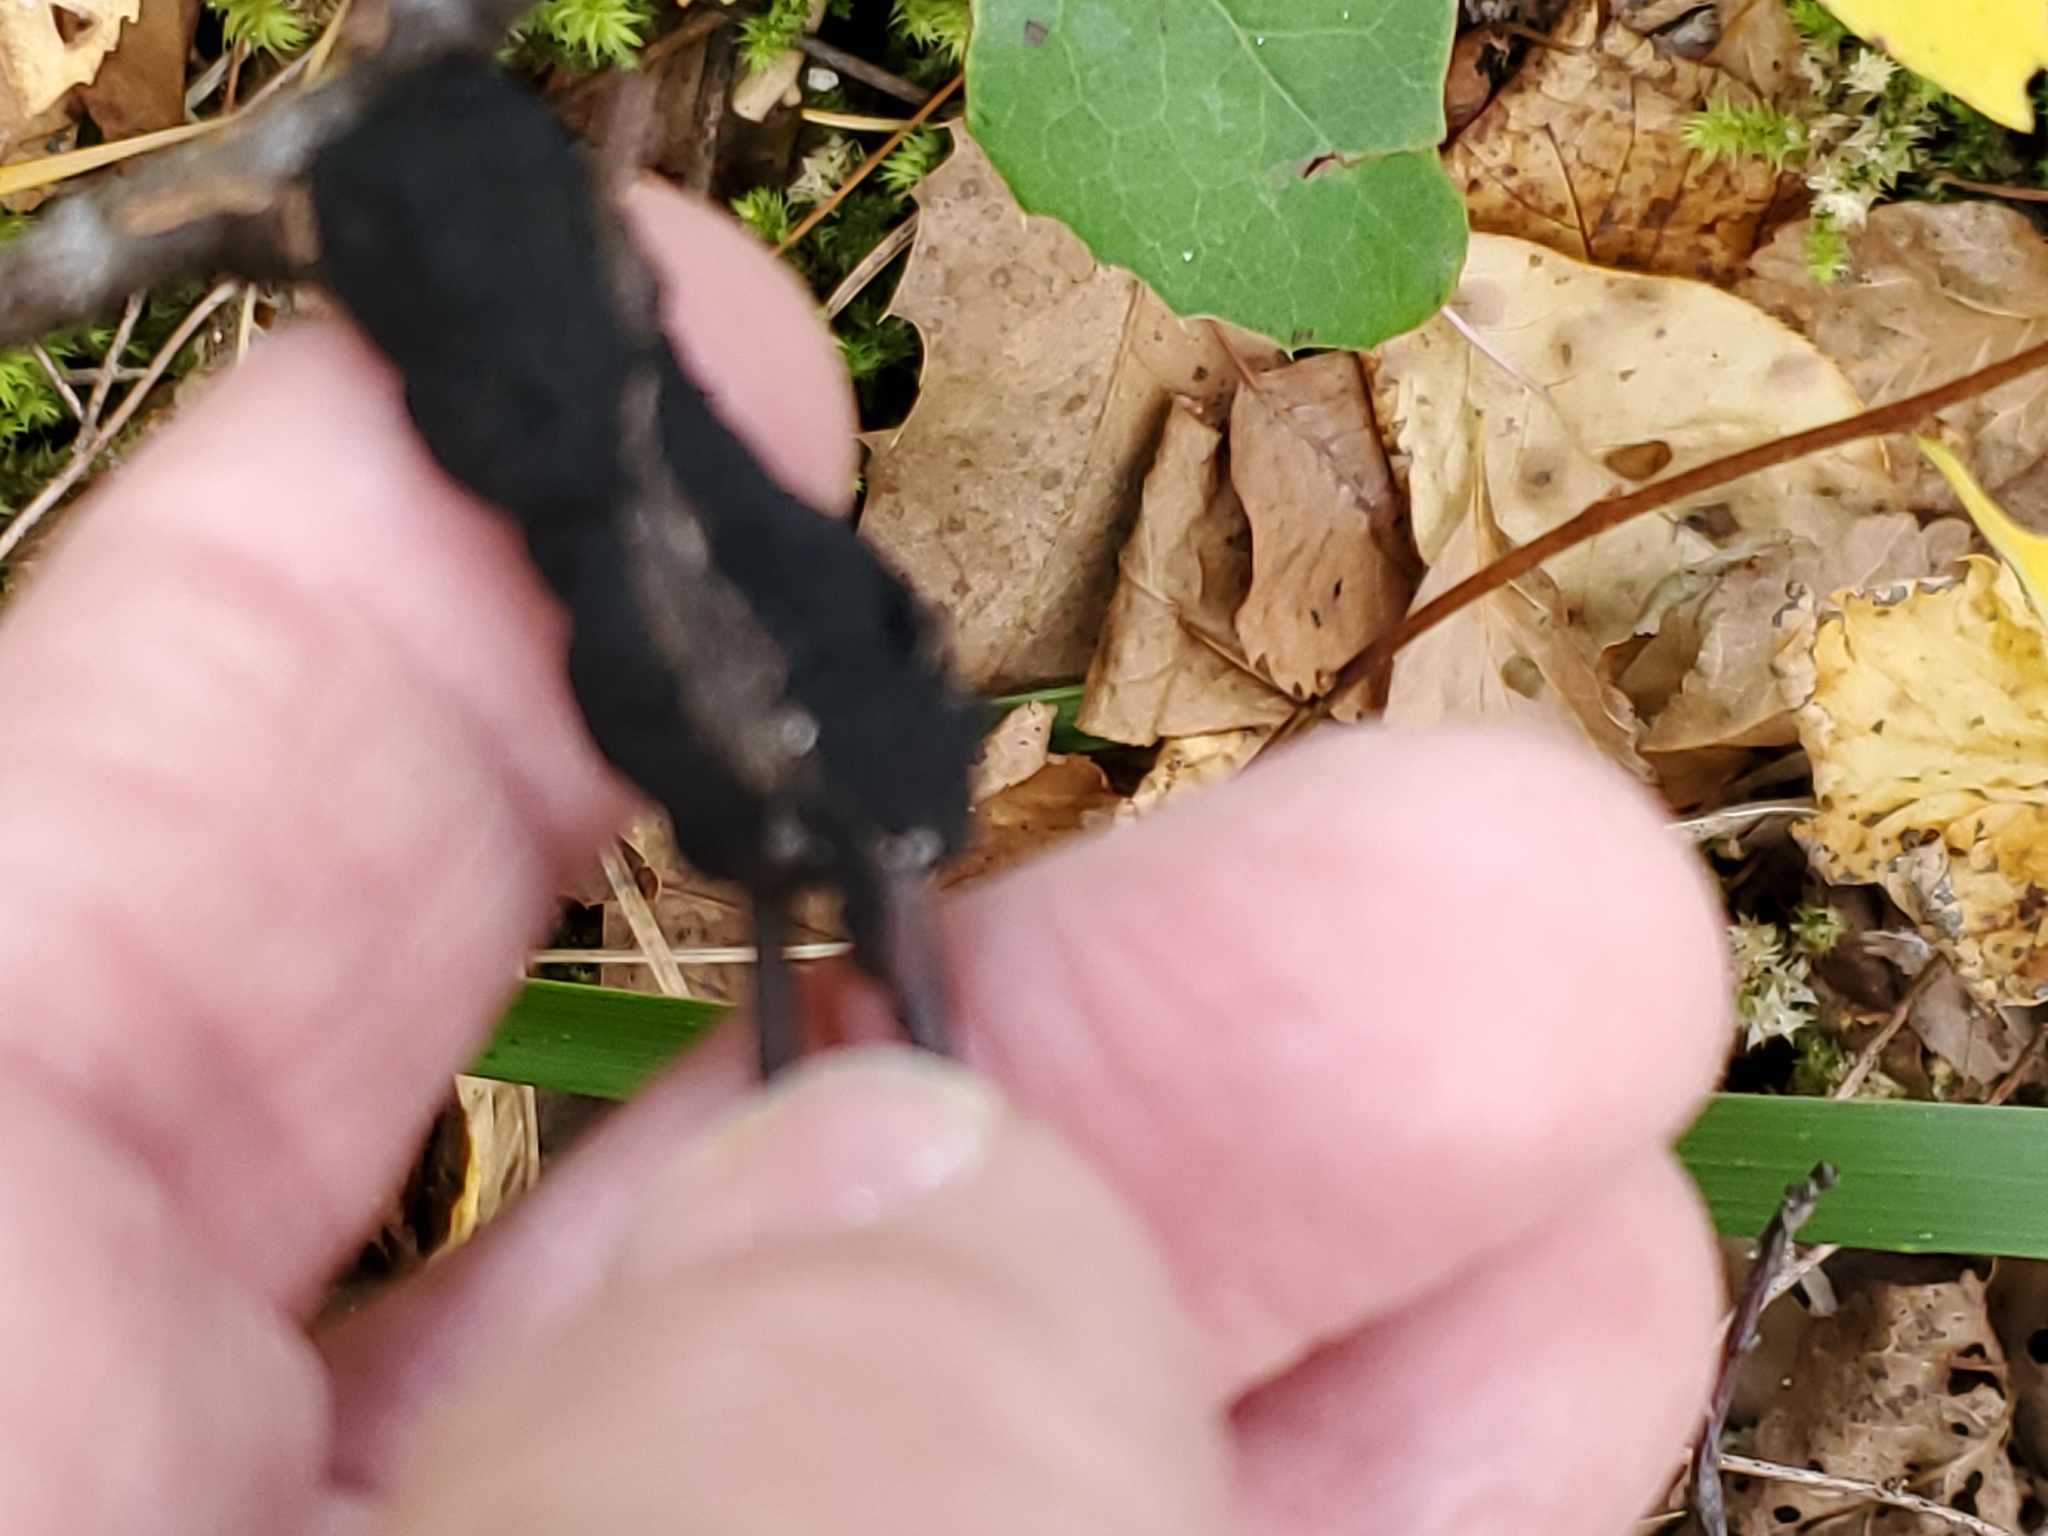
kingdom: Fungi
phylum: Ascomycota
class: Dothideomycetes
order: Venturiales
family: Venturiaceae
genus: Apiosporina
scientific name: Apiosporina morbosa
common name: Black knot
